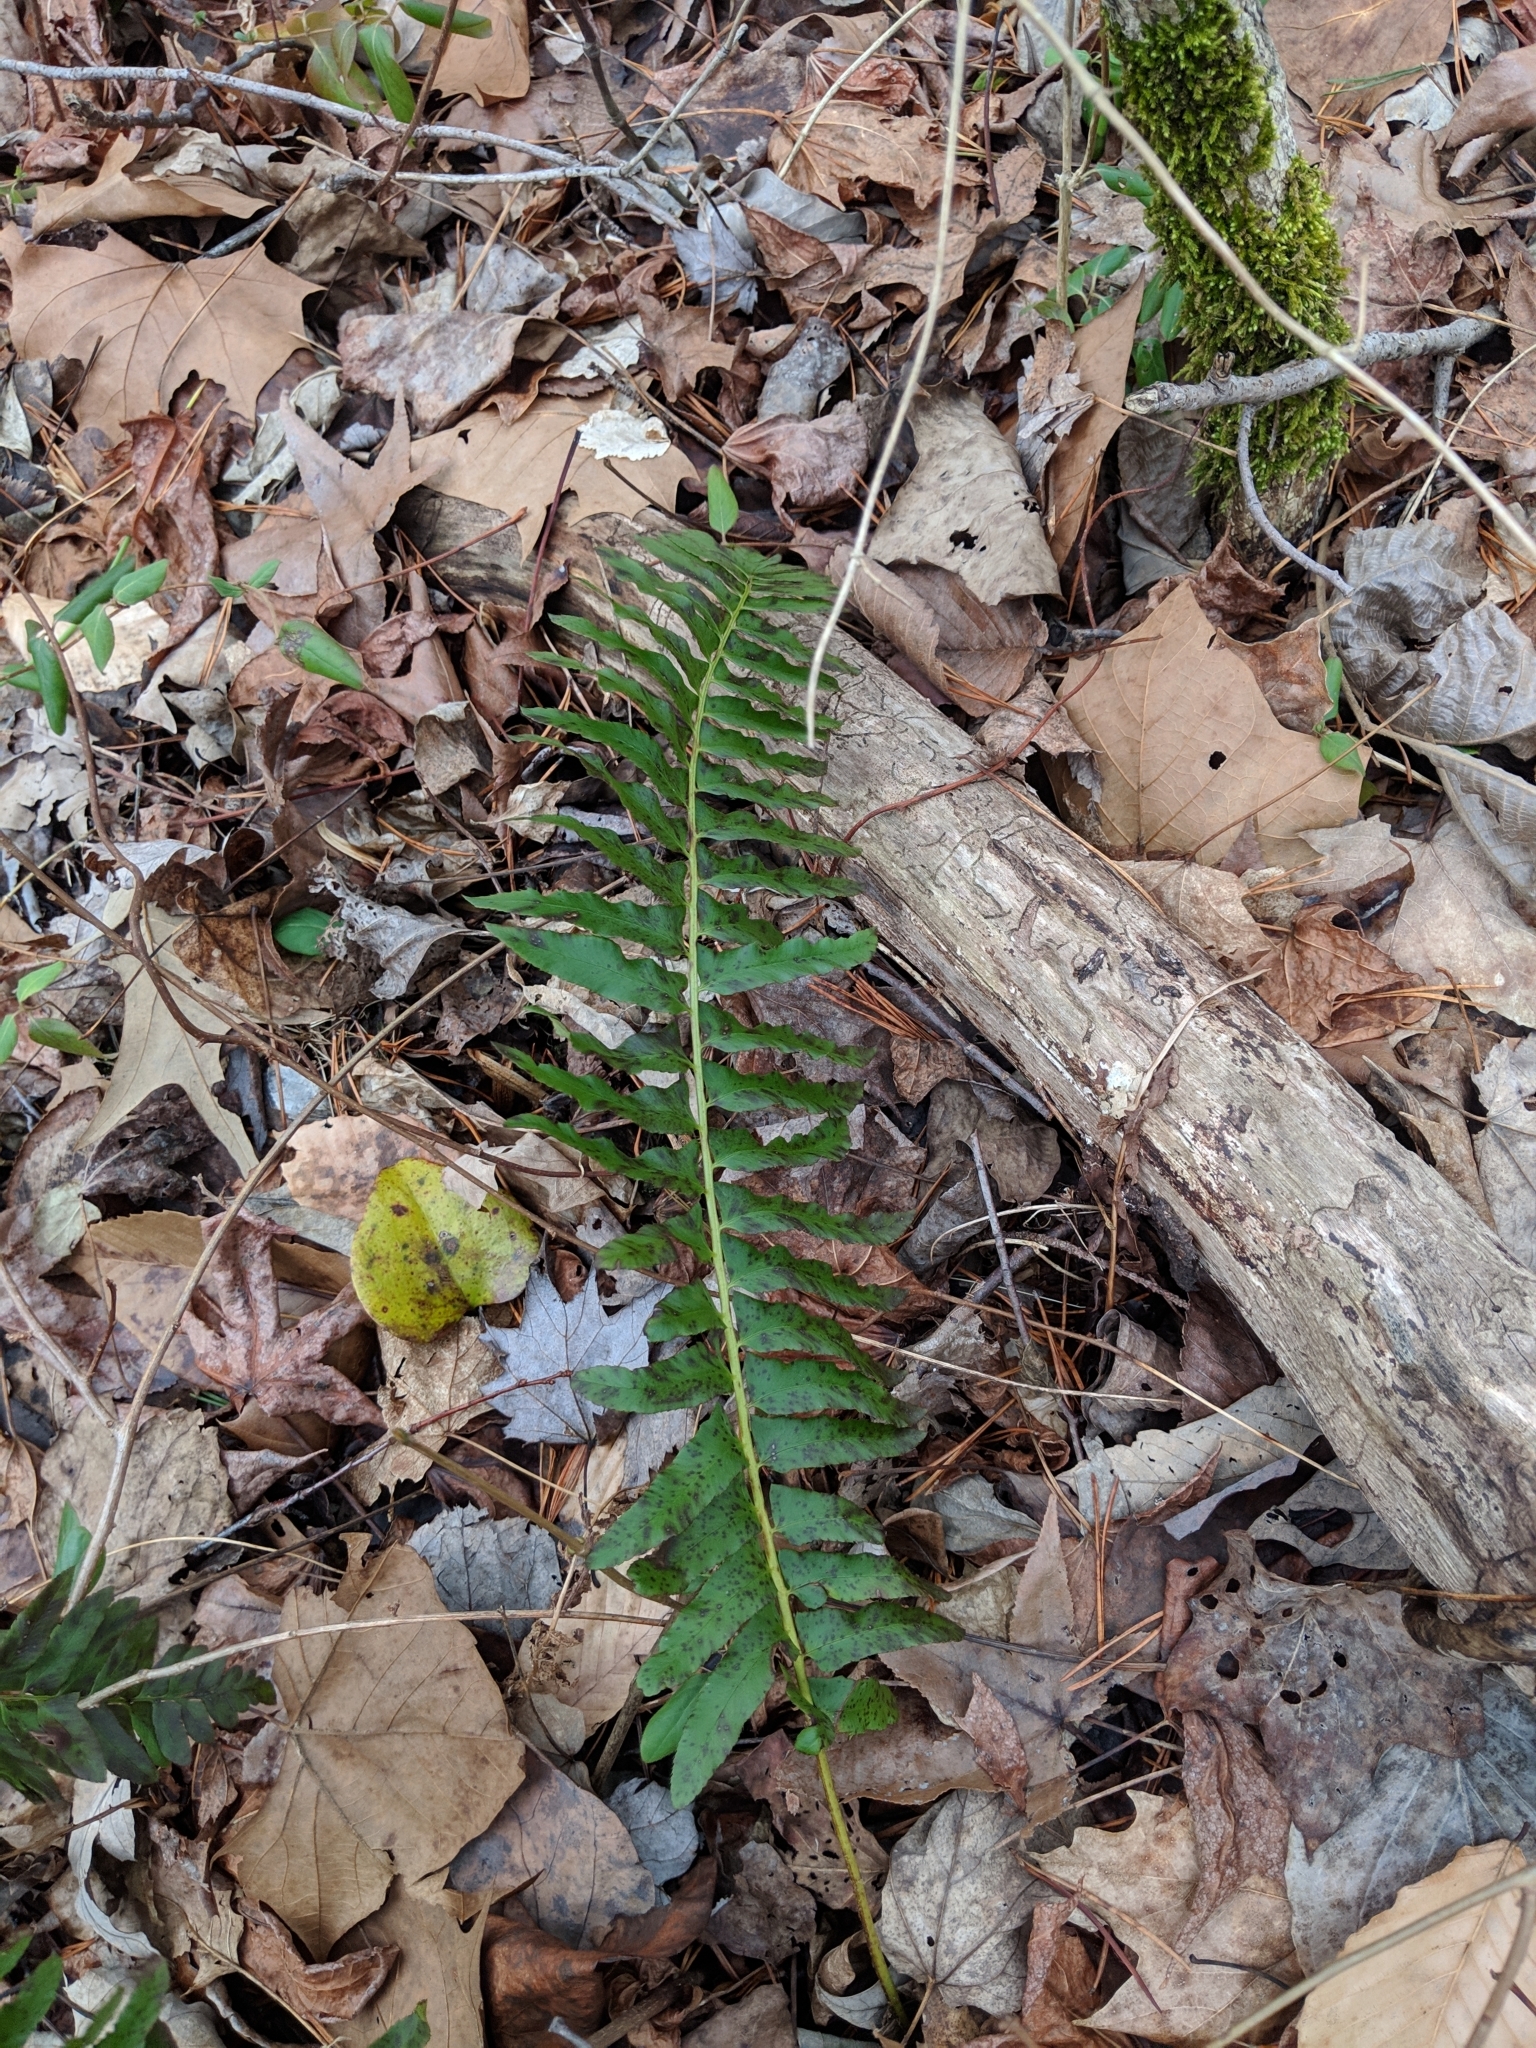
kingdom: Plantae
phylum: Tracheophyta
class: Polypodiopsida
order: Polypodiales
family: Dryopteridaceae
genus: Polystichum
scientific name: Polystichum acrostichoides
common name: Christmas fern
